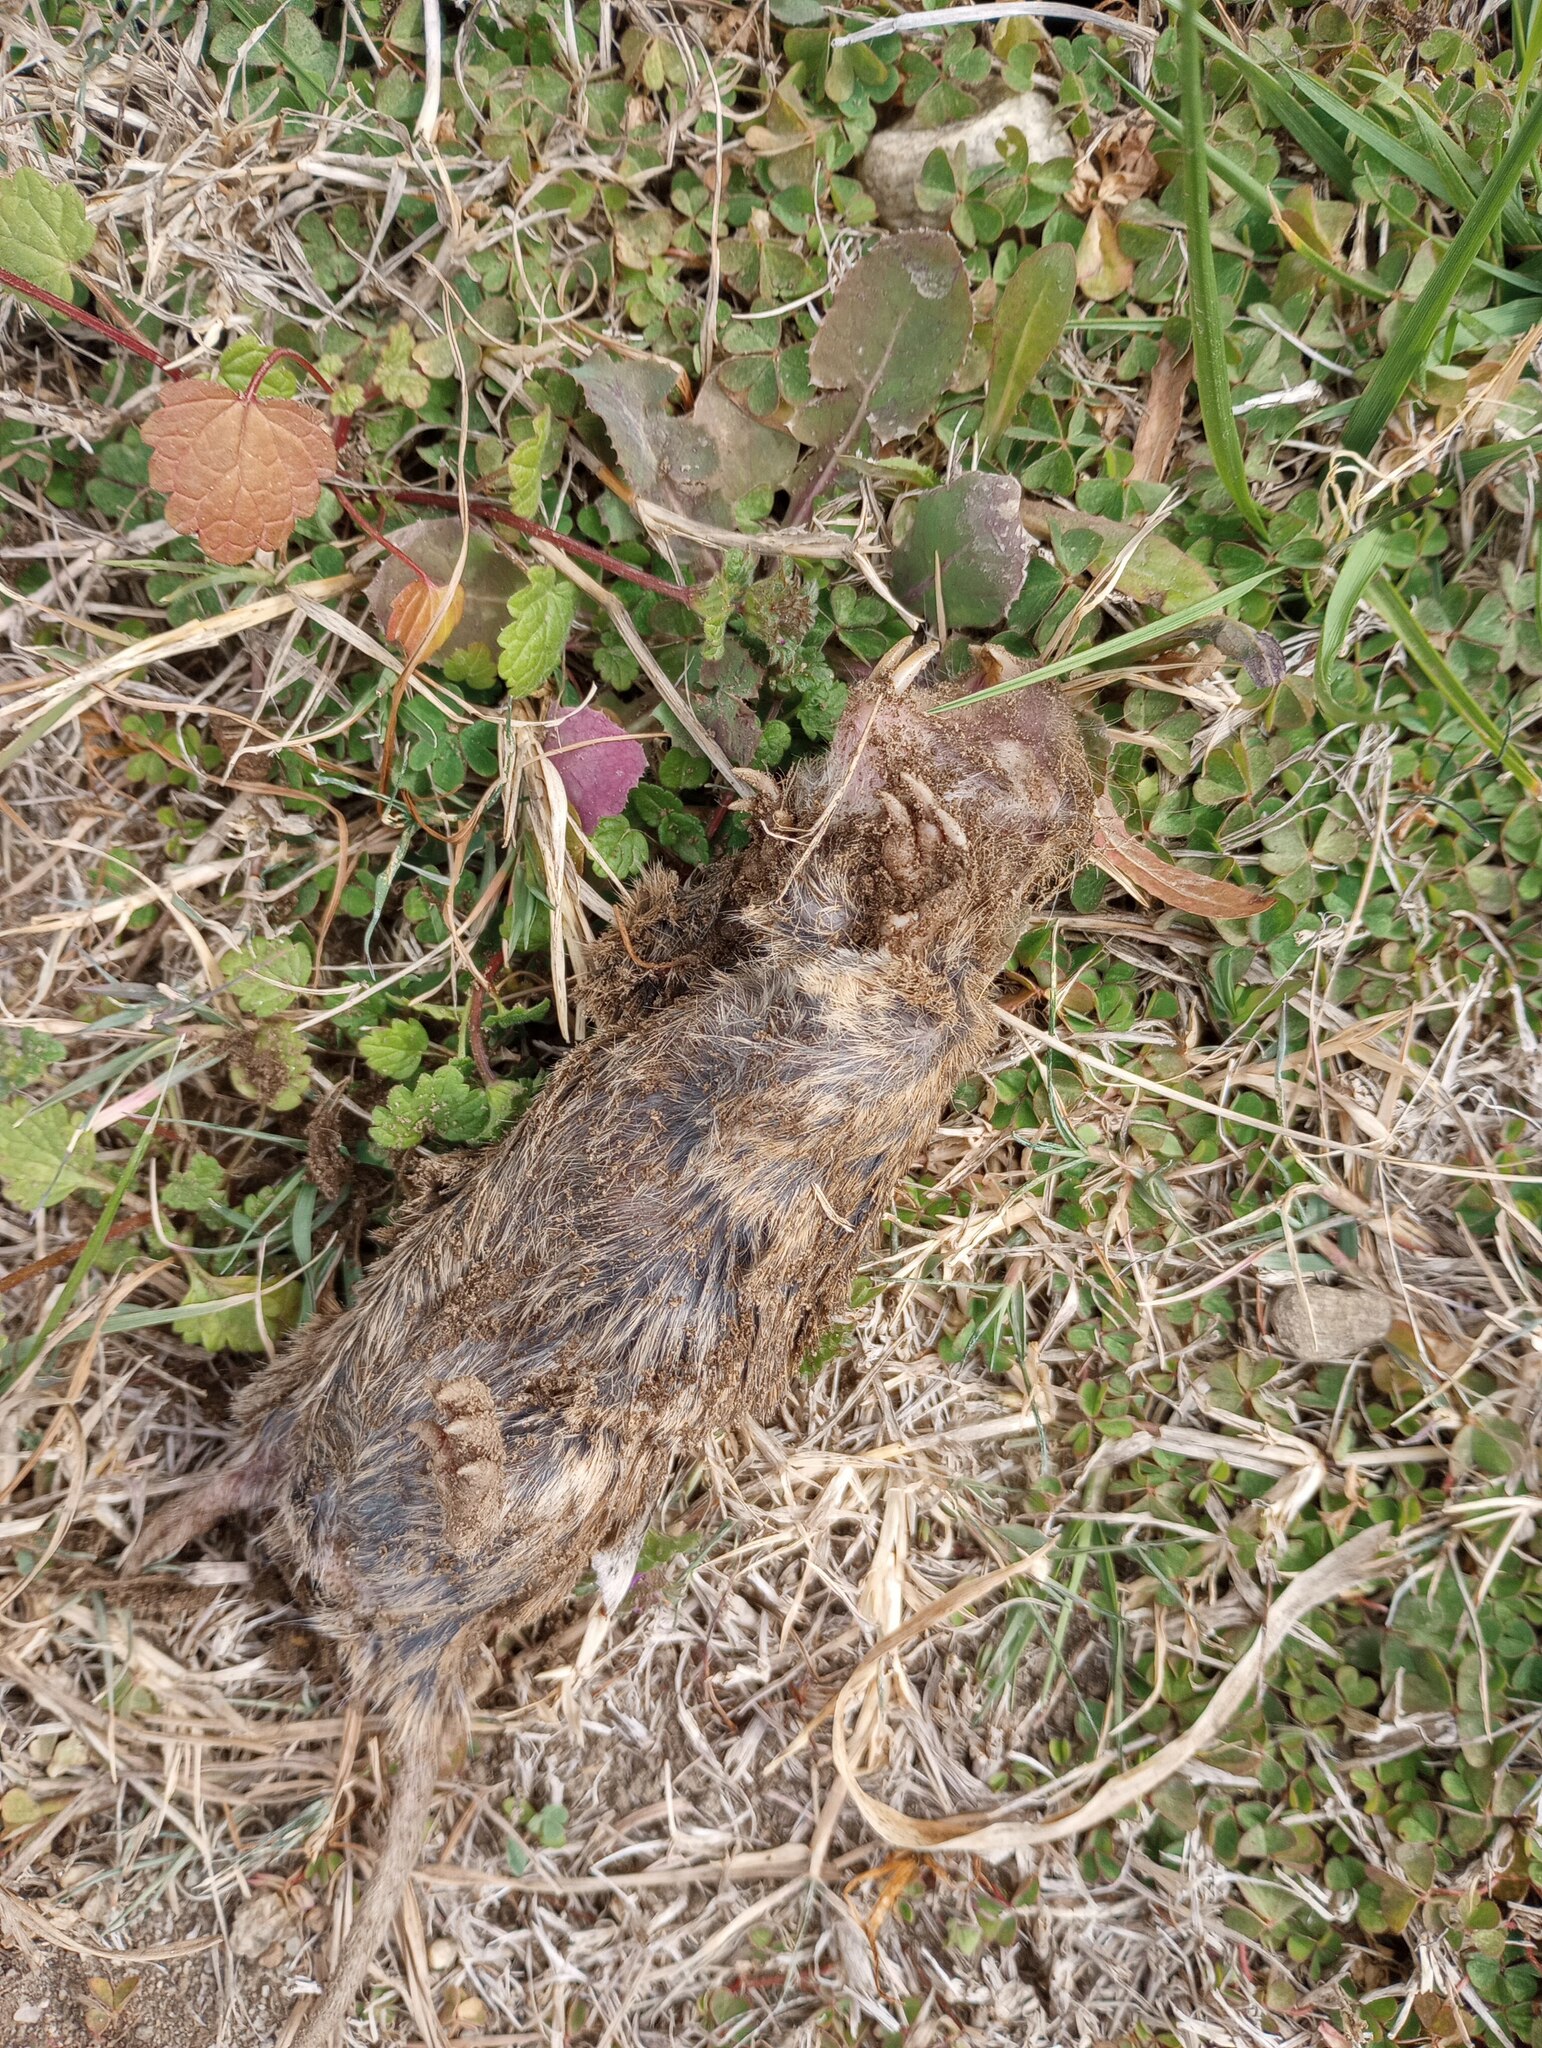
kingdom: Animalia
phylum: Chordata
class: Mammalia
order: Rodentia
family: Geomyidae
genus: Thomomys
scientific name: Thomomys bottae
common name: Botta's pocket gopher
